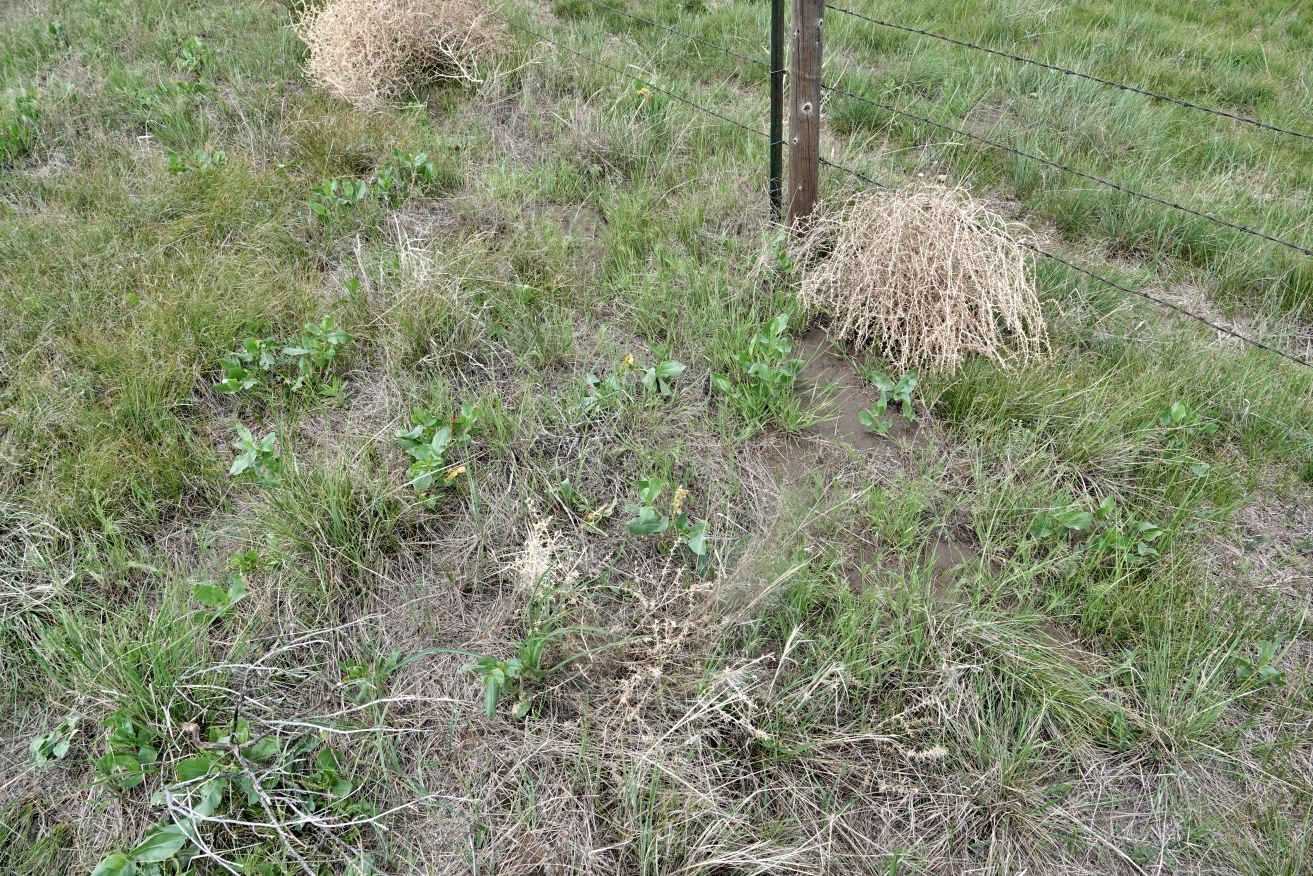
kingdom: Plantae
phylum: Tracheophyta
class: Magnoliopsida
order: Caryophyllales
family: Polygonaceae
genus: Rumex
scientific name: Rumex venosus
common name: Winged dock
